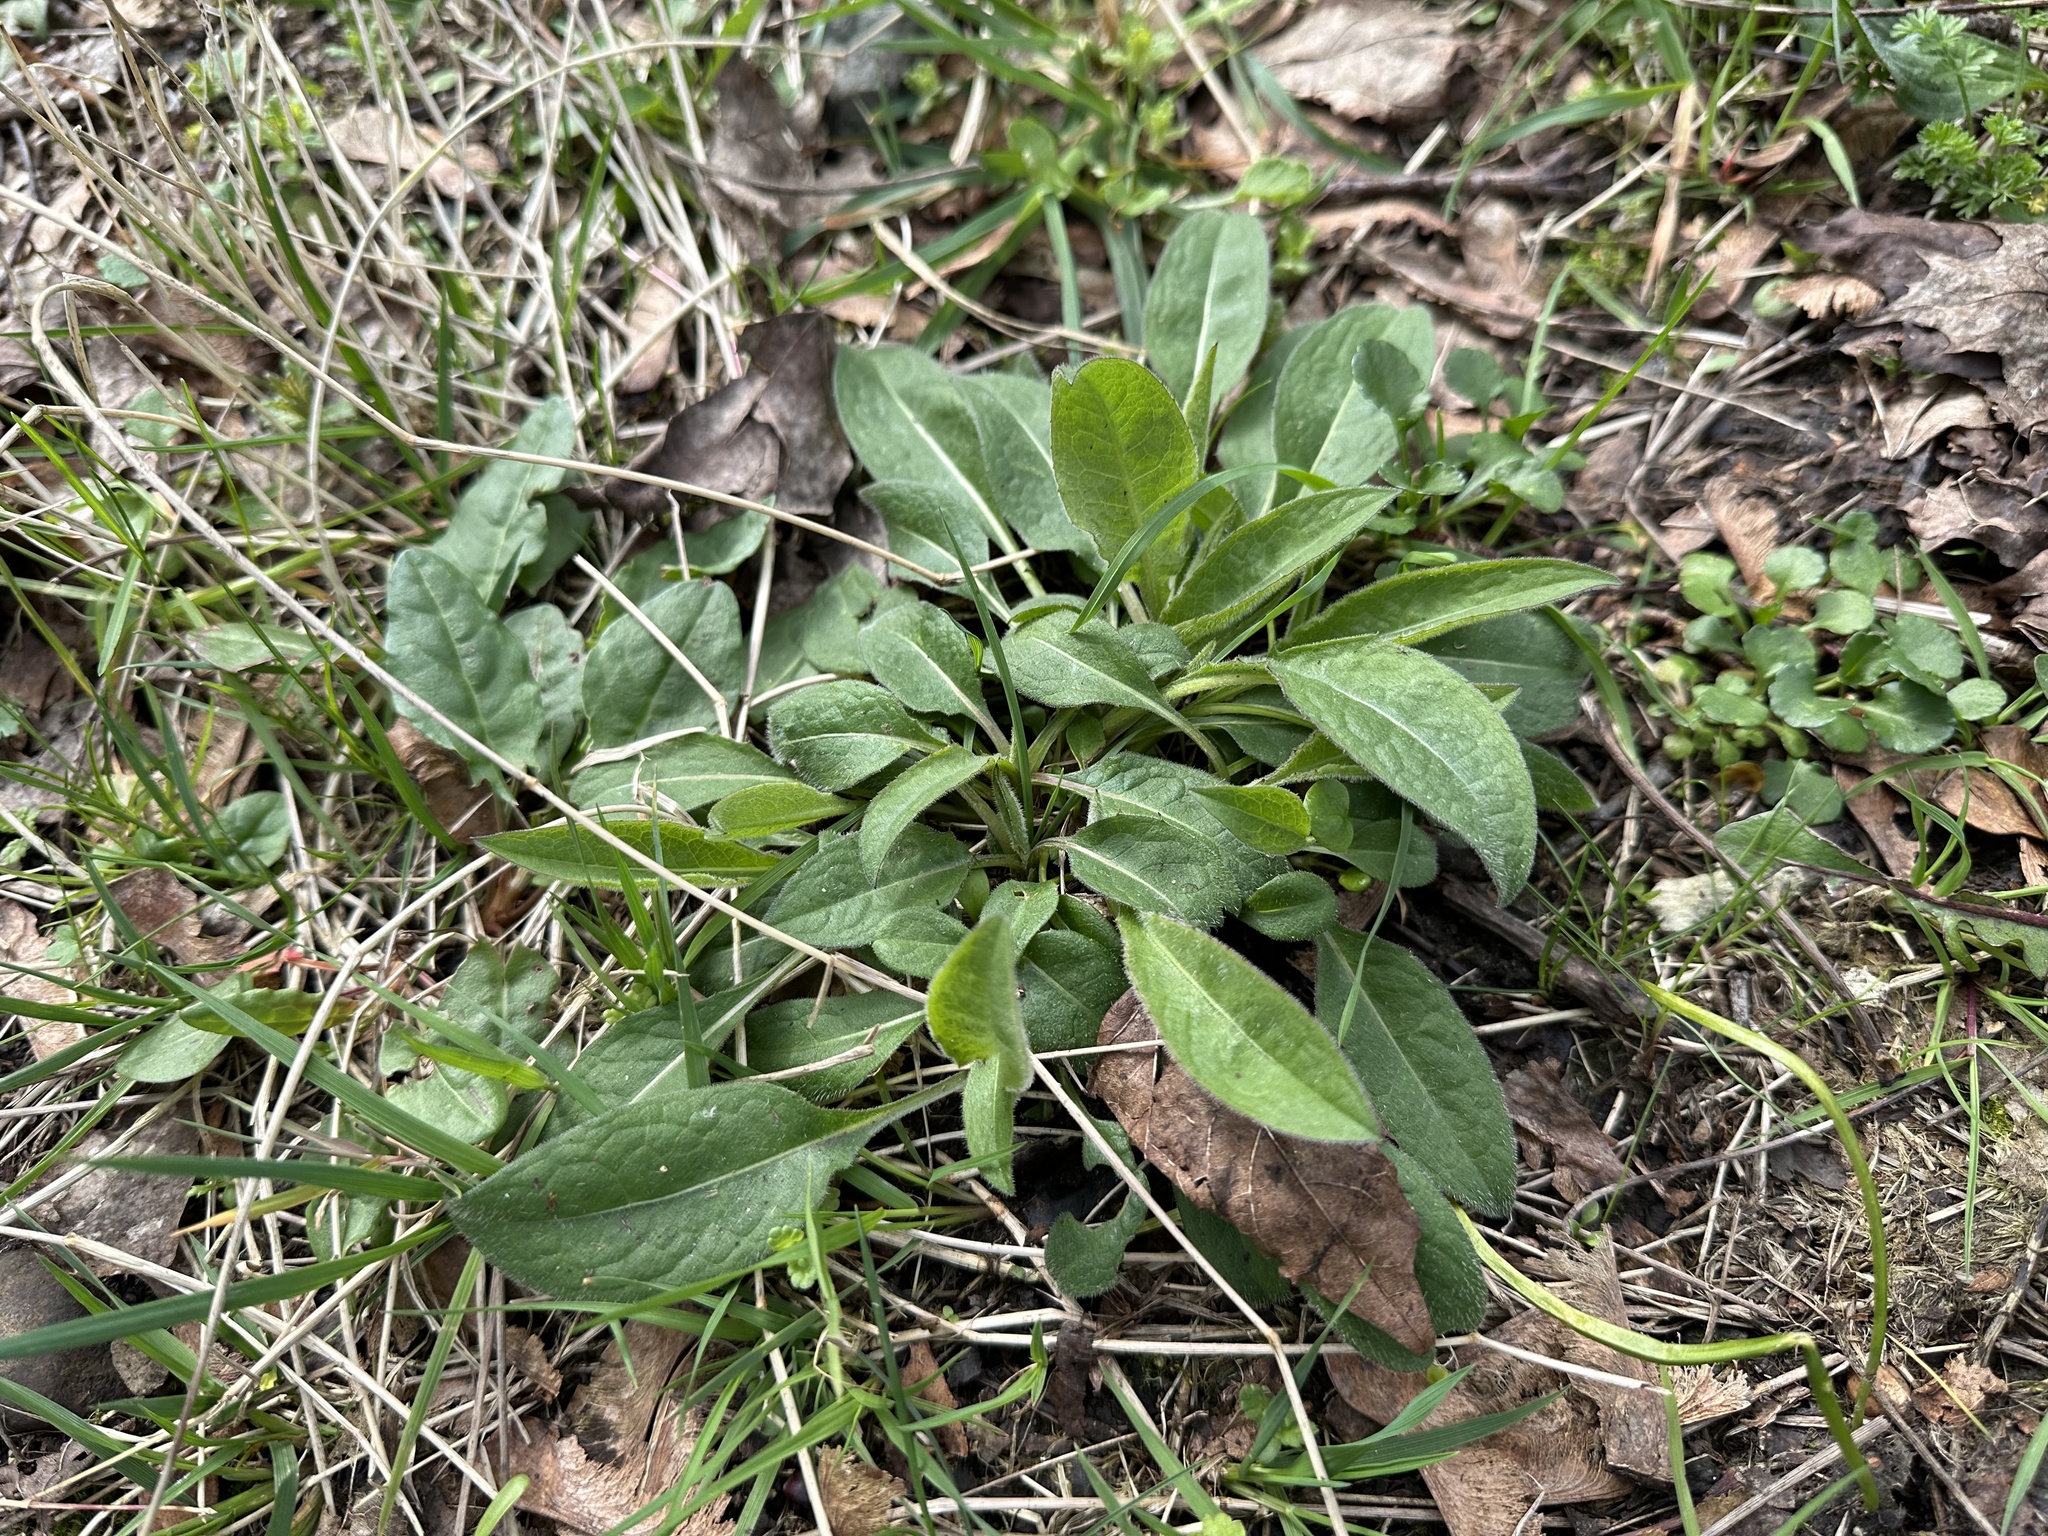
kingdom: Plantae
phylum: Tracheophyta
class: Magnoliopsida
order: Asterales
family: Asteraceae
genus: Centaurea
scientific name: Centaurea nigra
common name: Lesser knapweed
